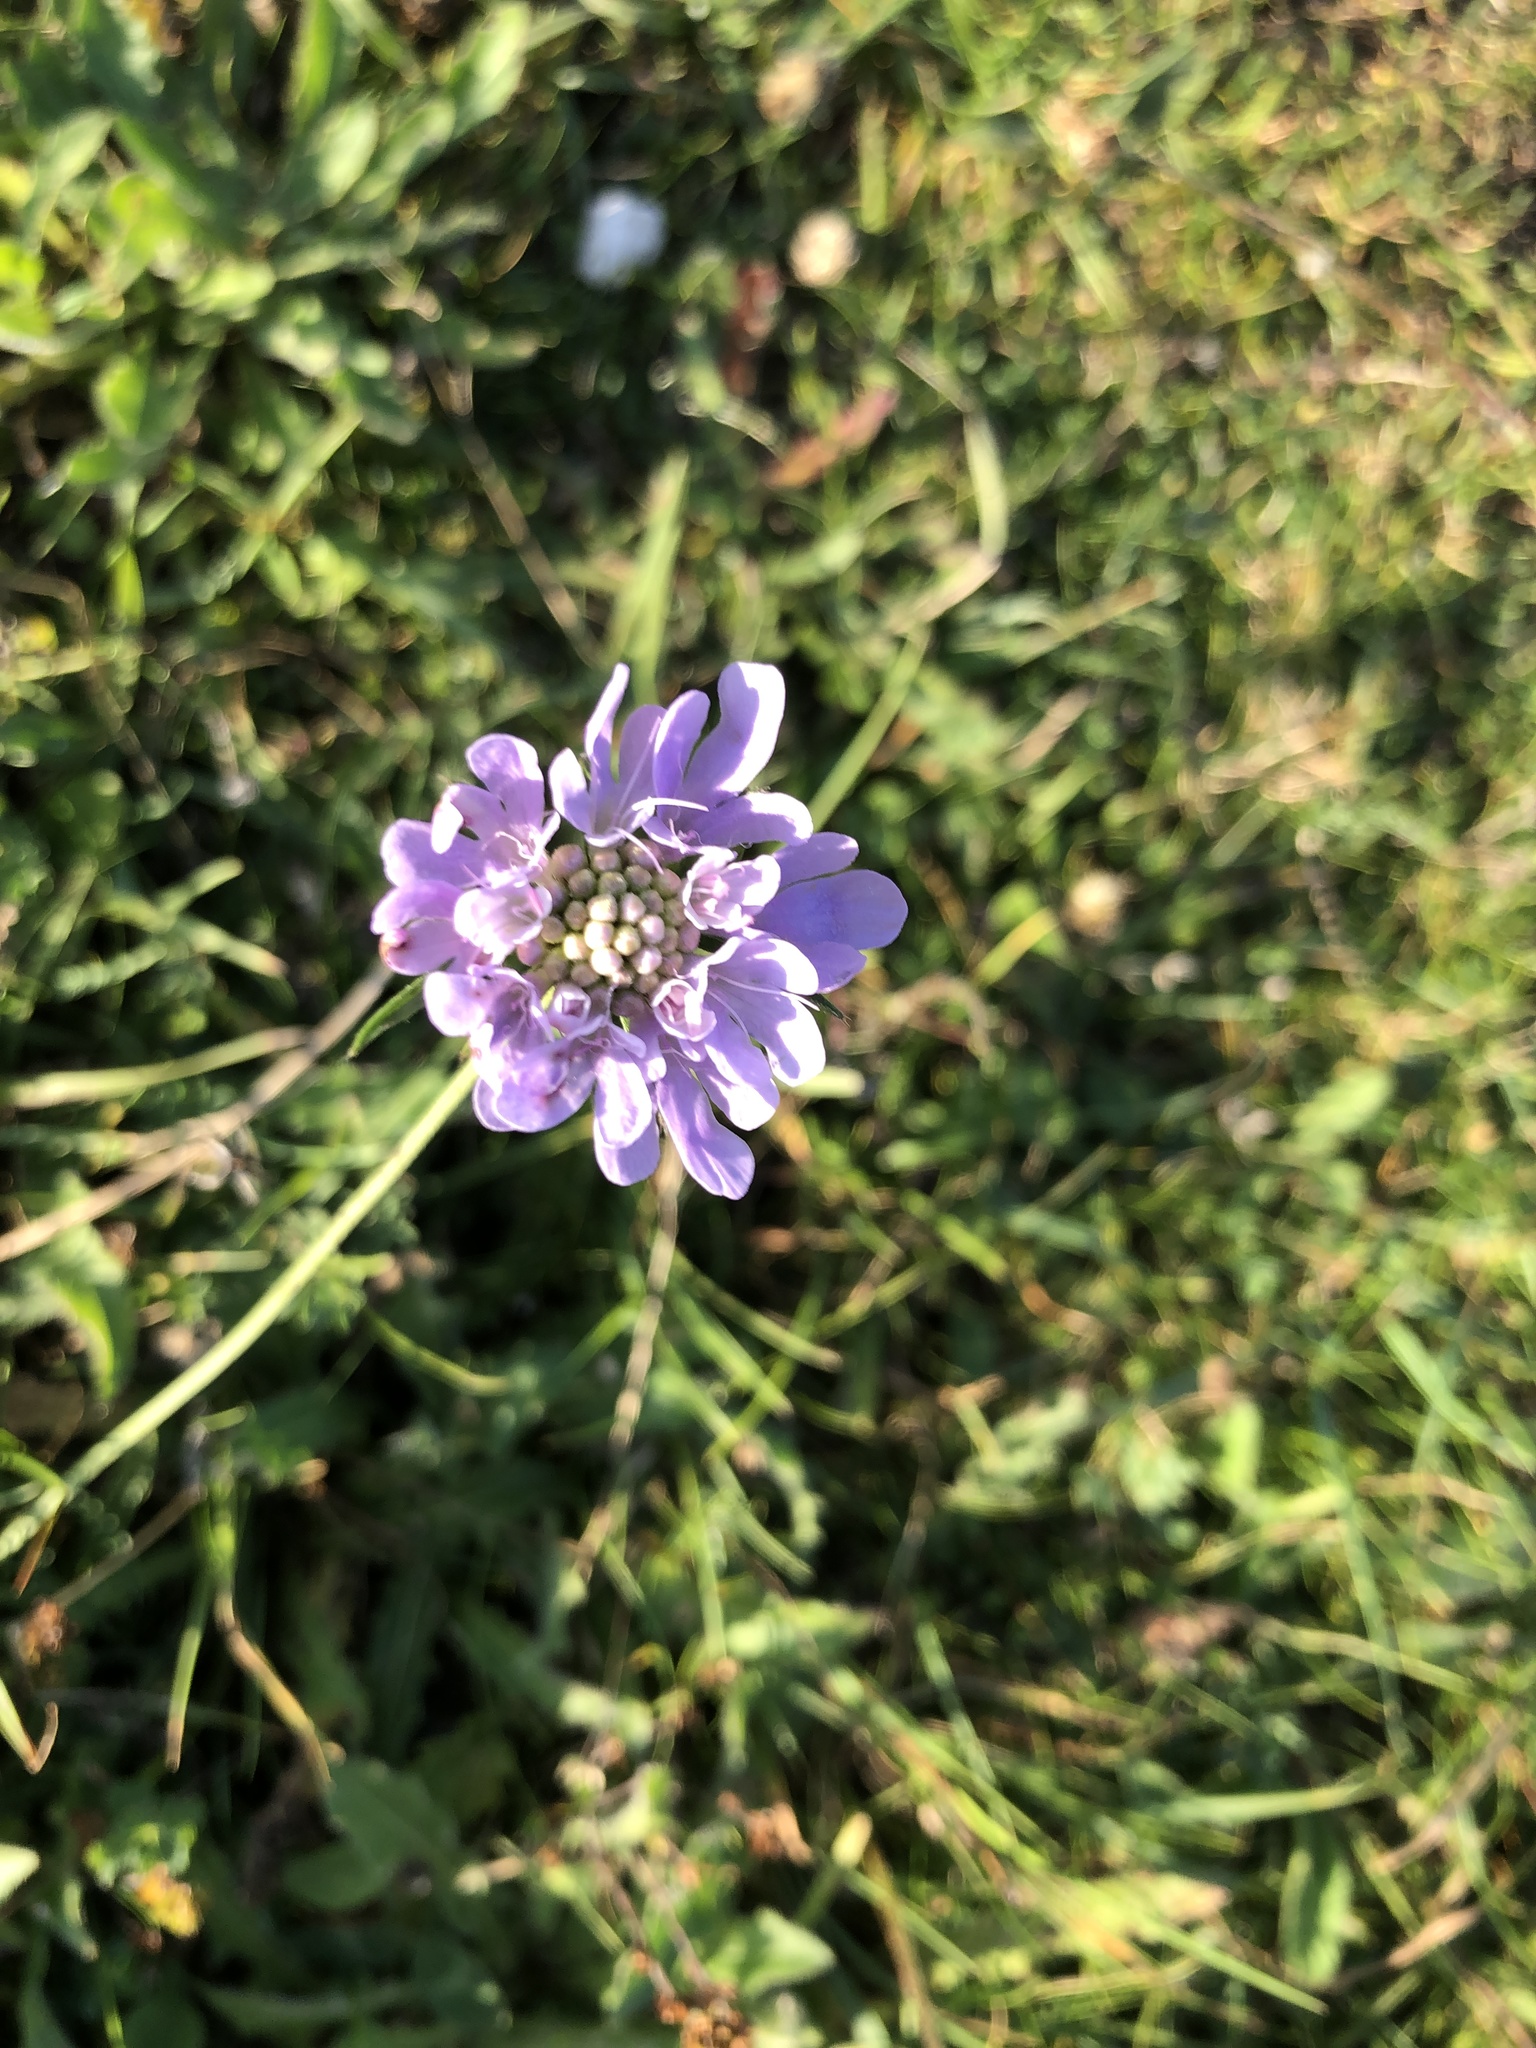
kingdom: Plantae
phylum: Tracheophyta
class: Magnoliopsida
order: Dipsacales
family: Caprifoliaceae
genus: Succisa
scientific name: Succisa pratensis
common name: Devil's-bit
